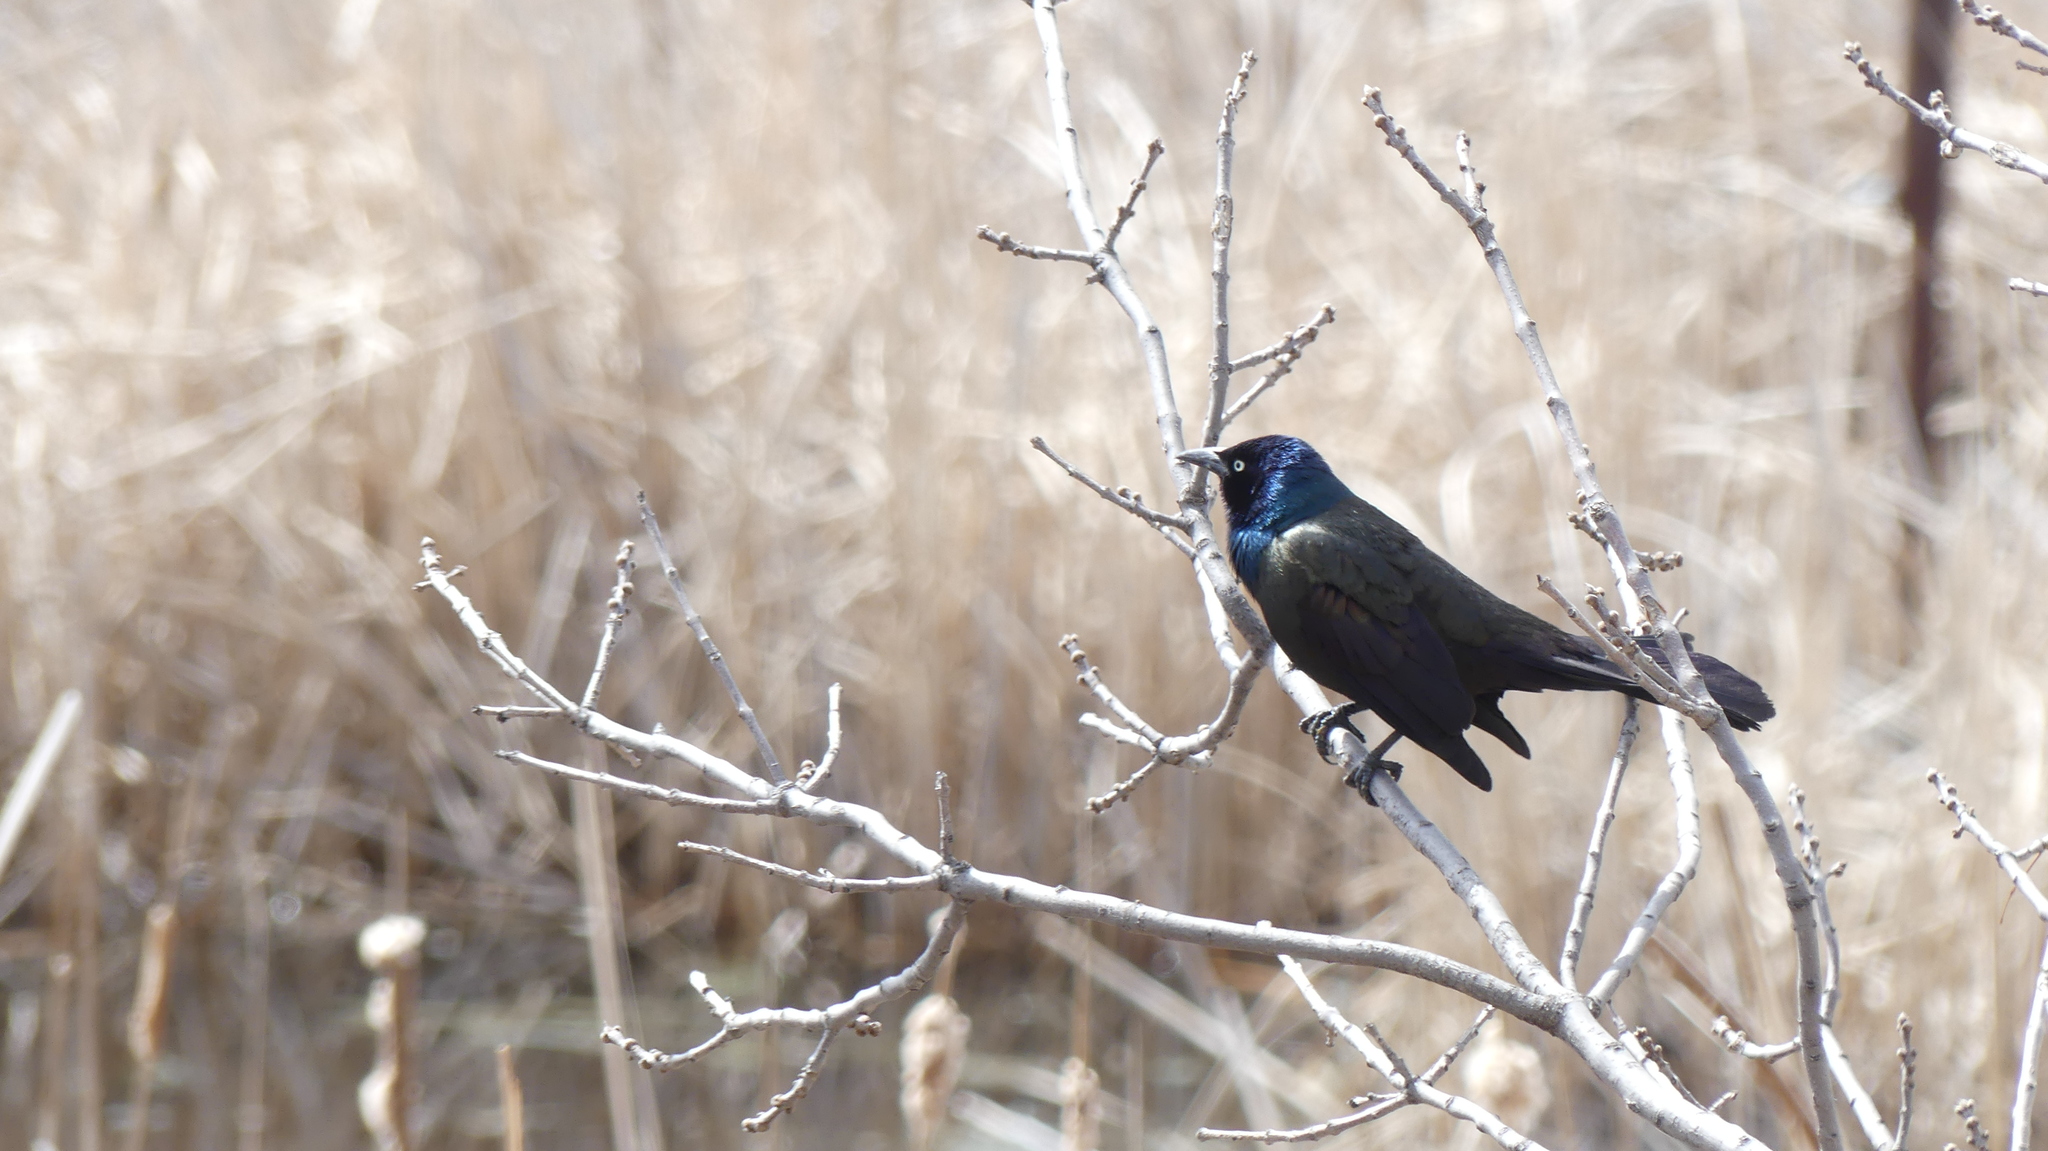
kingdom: Animalia
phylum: Chordata
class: Aves
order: Passeriformes
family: Icteridae
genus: Quiscalus
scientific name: Quiscalus quiscula
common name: Common grackle
